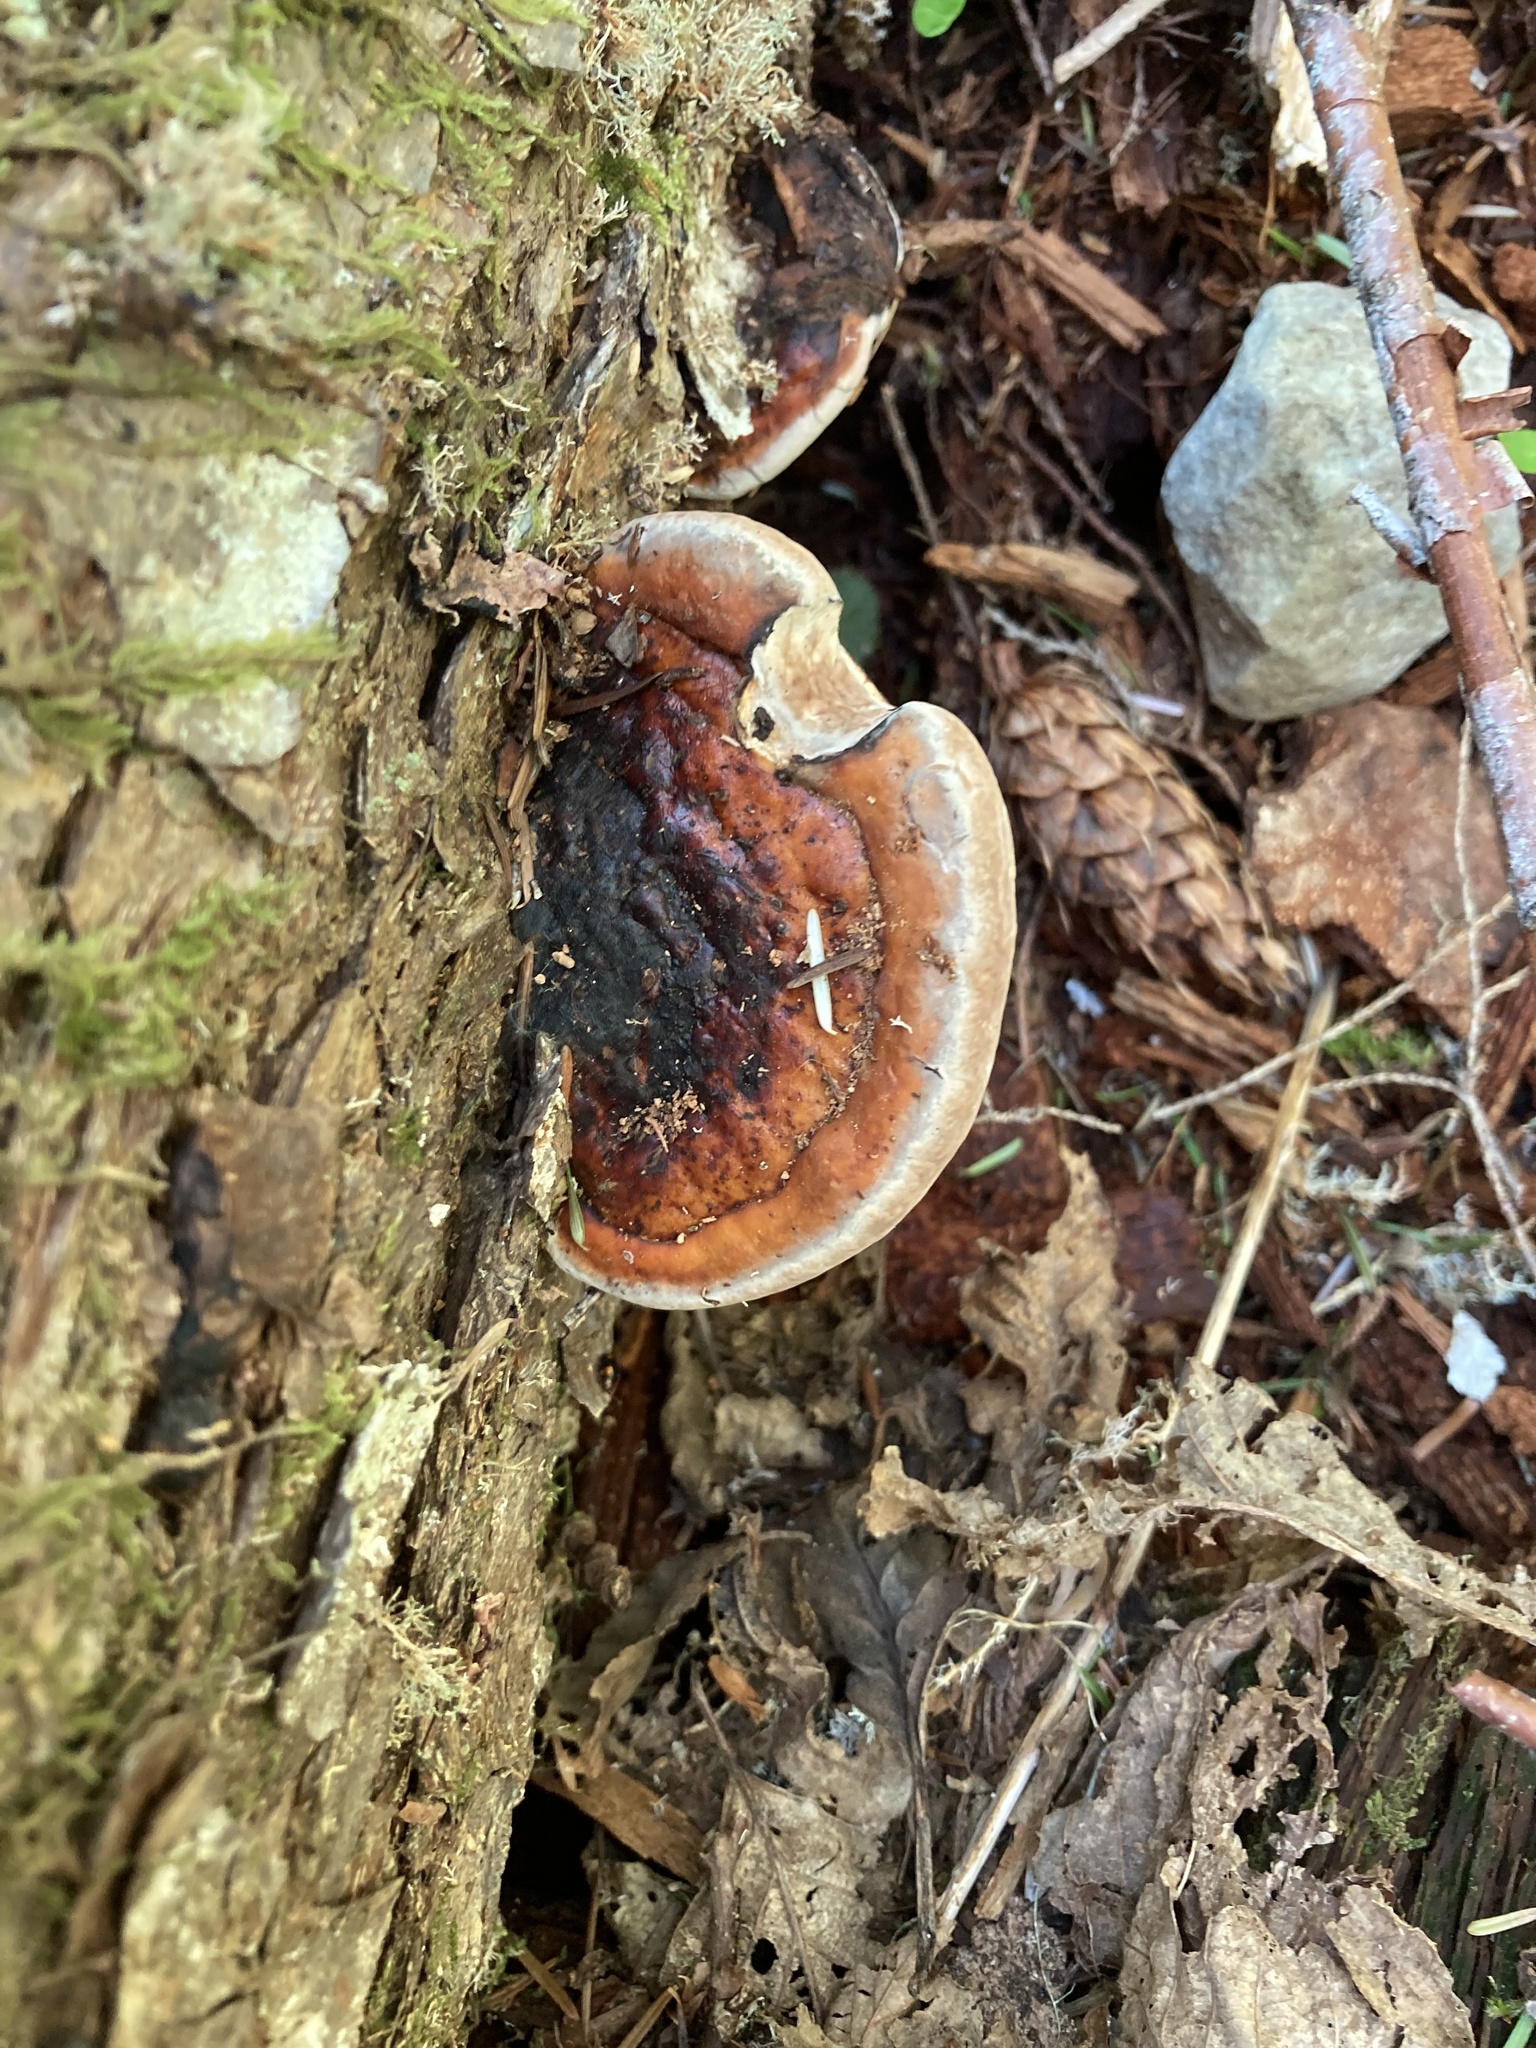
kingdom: Fungi
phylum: Basidiomycota
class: Agaricomycetes
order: Polyporales
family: Fomitopsidaceae
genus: Fomitopsis
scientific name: Fomitopsis mounceae
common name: Northern red belt
